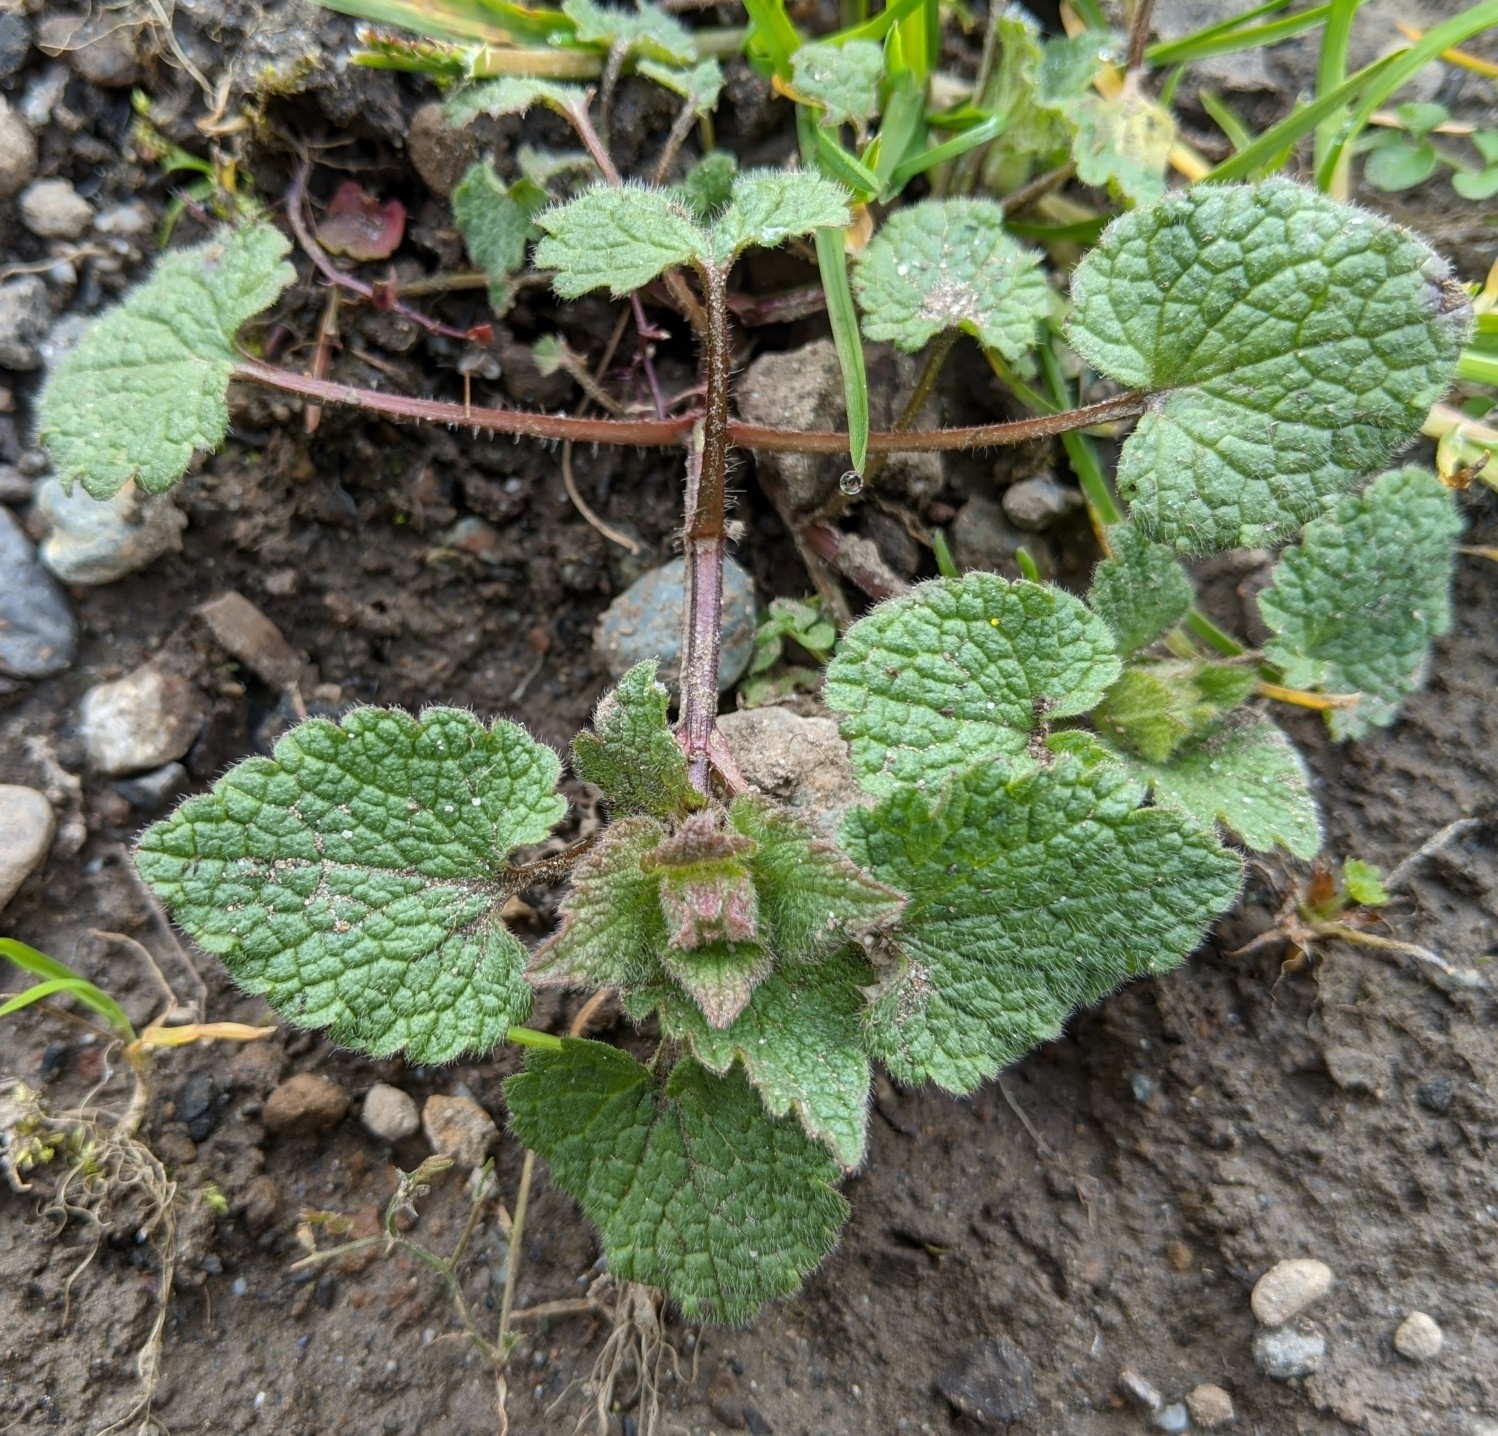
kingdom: Plantae
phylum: Tracheophyta
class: Magnoliopsida
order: Lamiales
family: Lamiaceae
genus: Lamium
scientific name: Lamium purpureum
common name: Red dead-nettle
